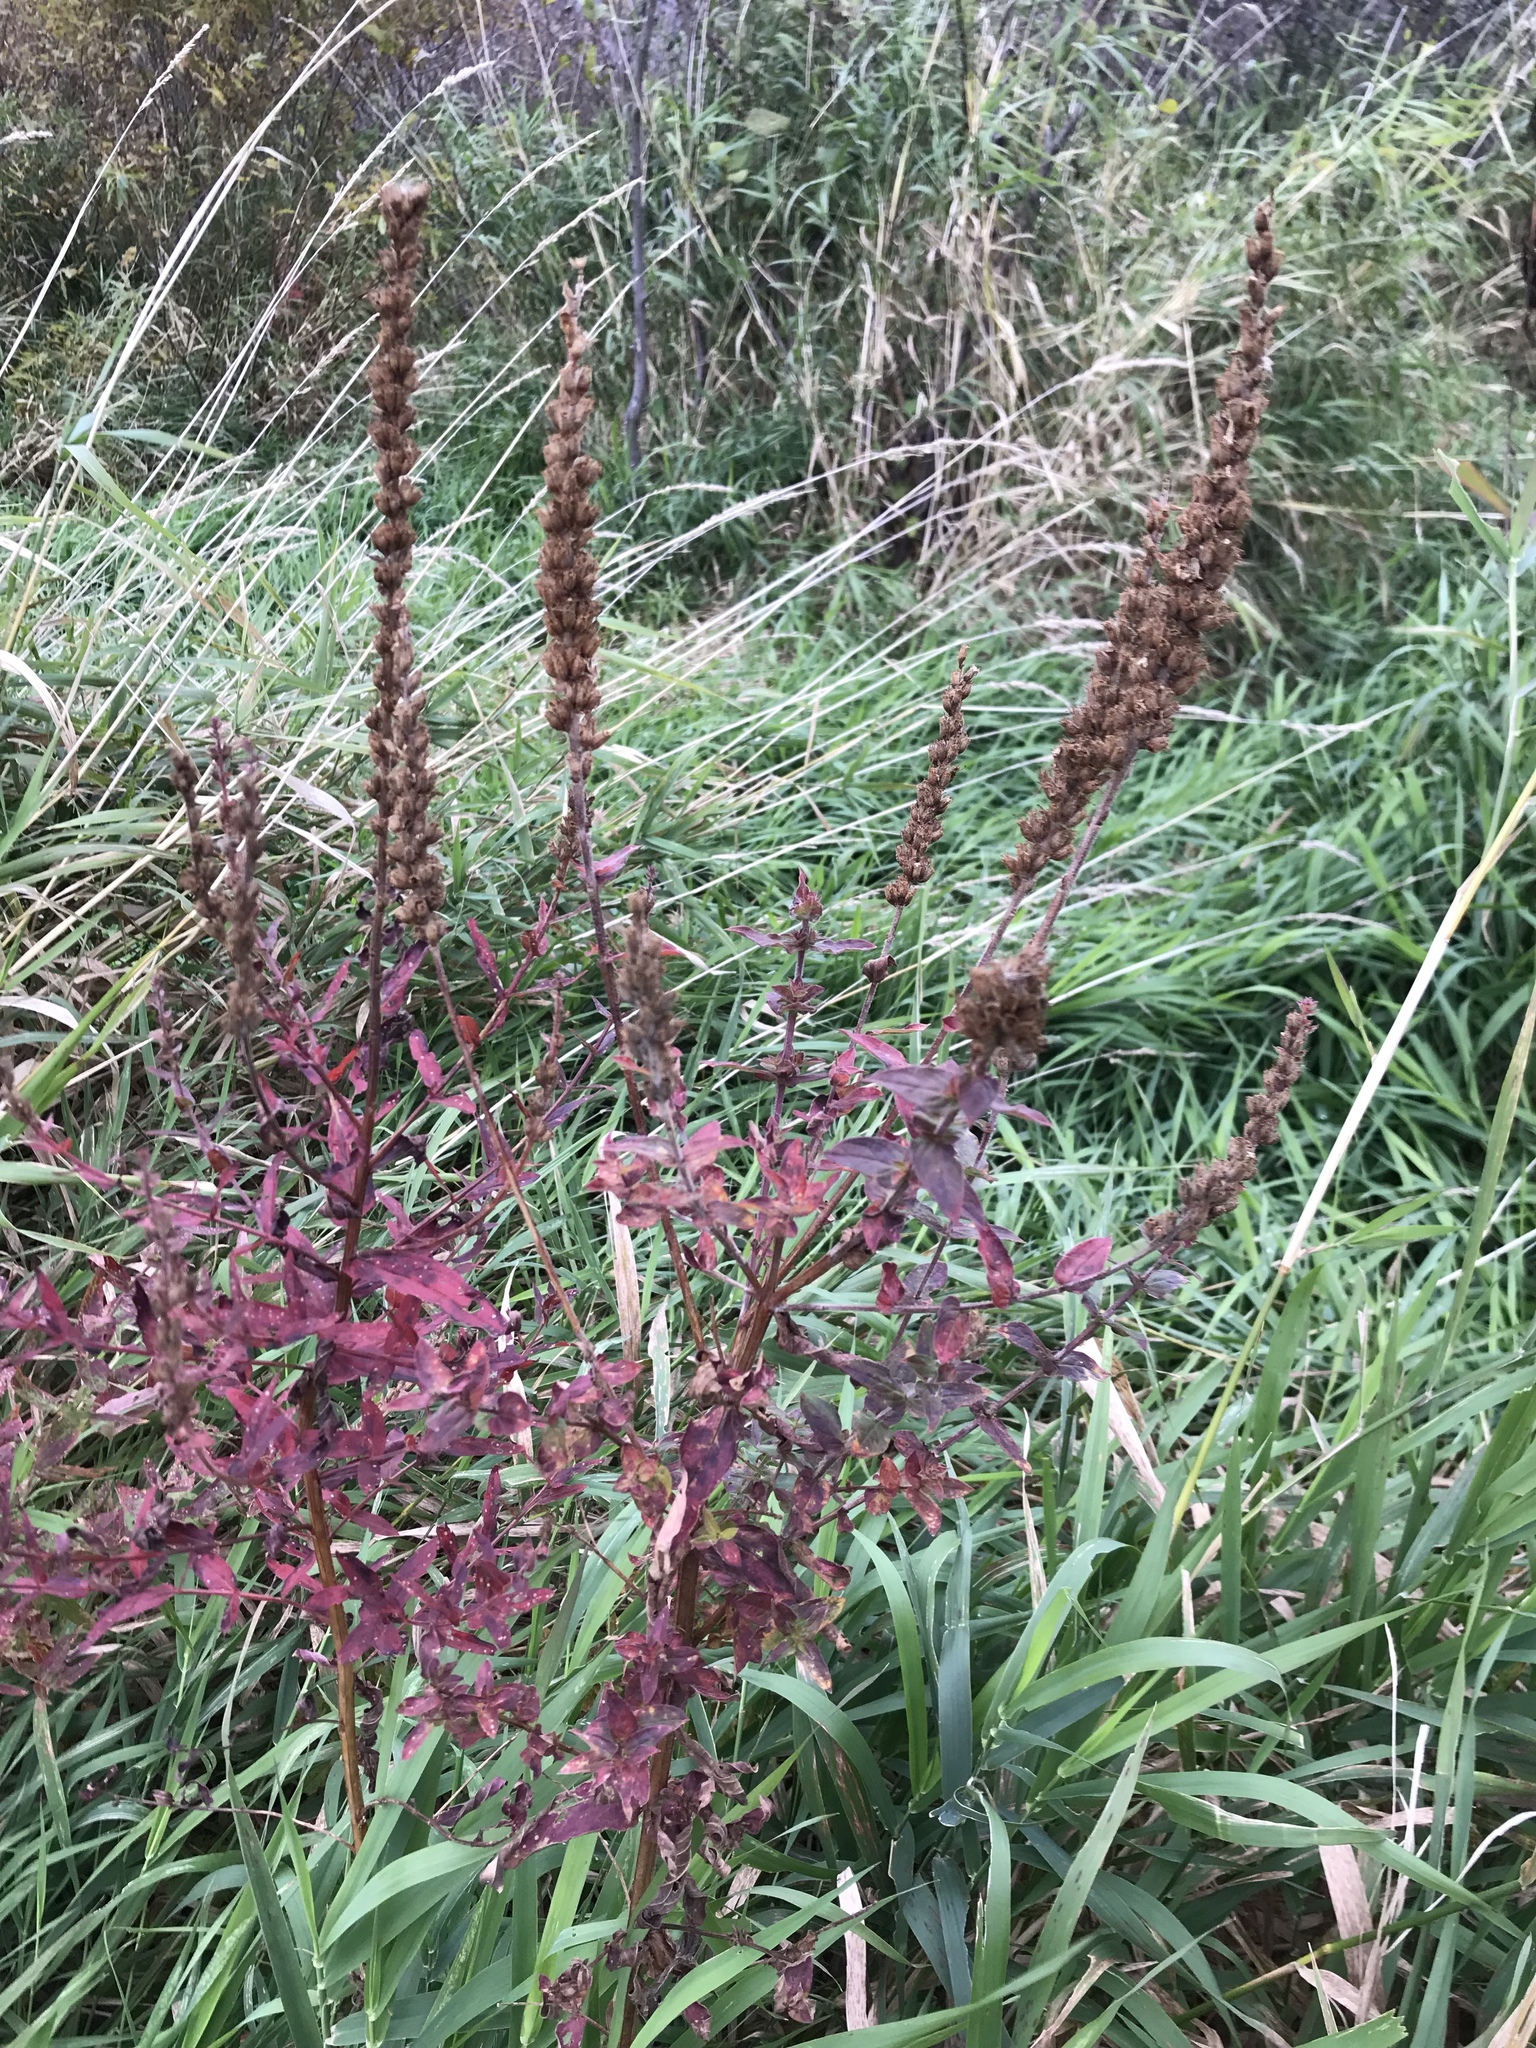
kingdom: Plantae
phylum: Tracheophyta
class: Magnoliopsida
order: Myrtales
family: Lythraceae
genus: Lythrum
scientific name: Lythrum salicaria
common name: Purple loosestrife
